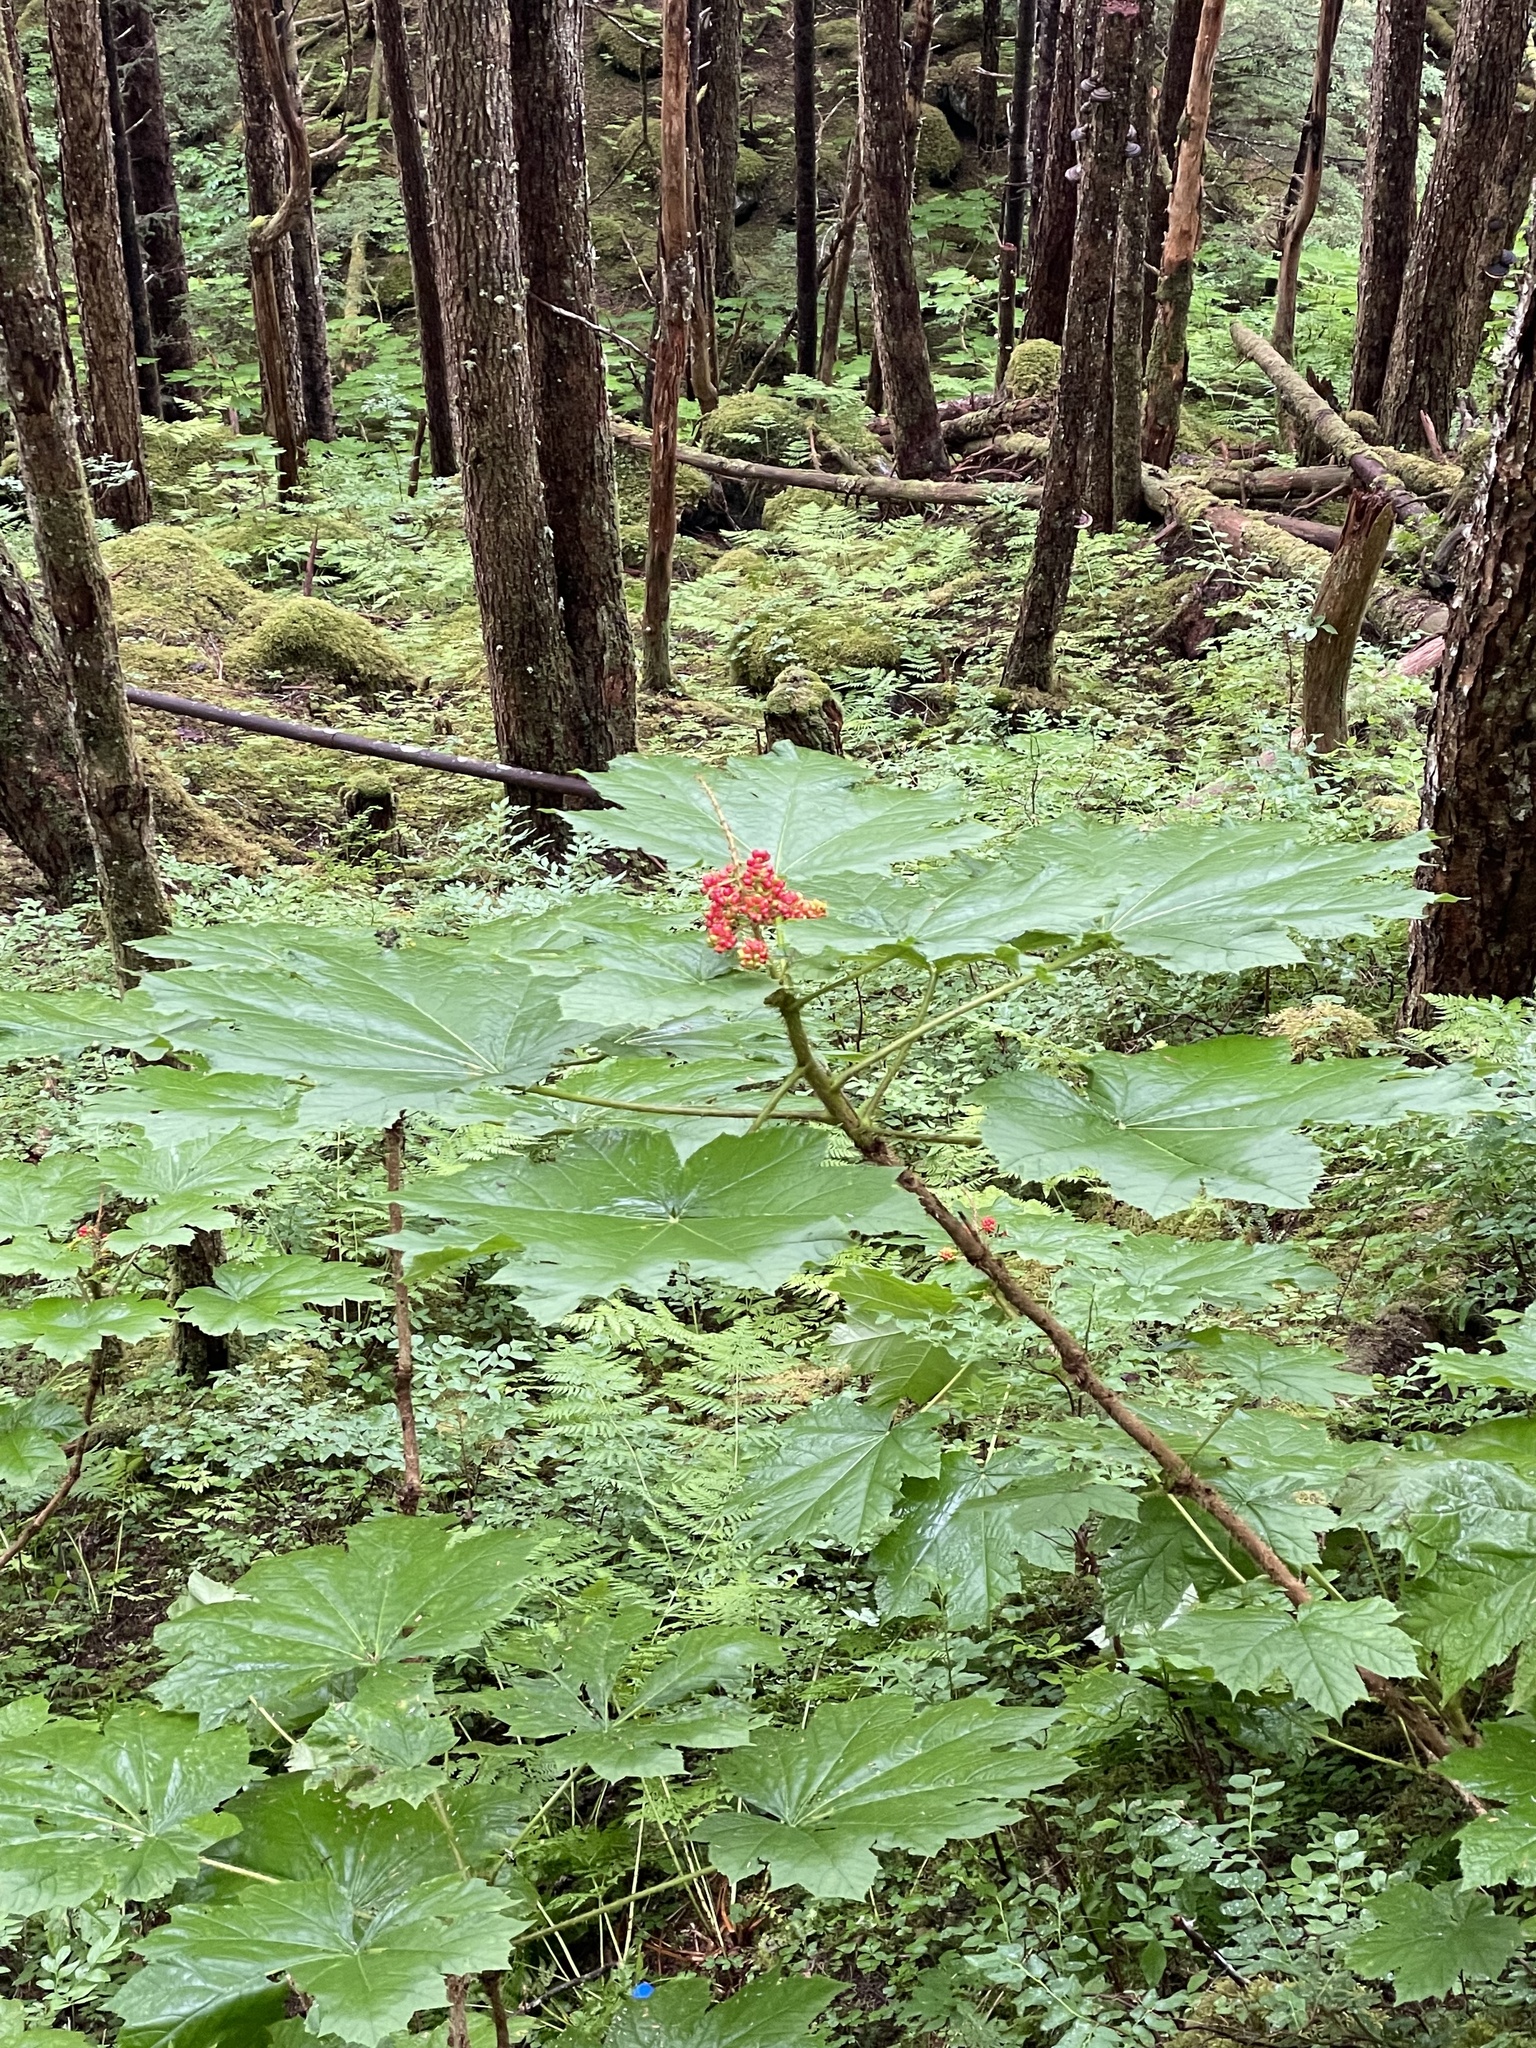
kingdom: Plantae
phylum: Tracheophyta
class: Magnoliopsida
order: Apiales
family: Araliaceae
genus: Oplopanax
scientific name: Oplopanax horridus
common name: Devil's walking-stick
